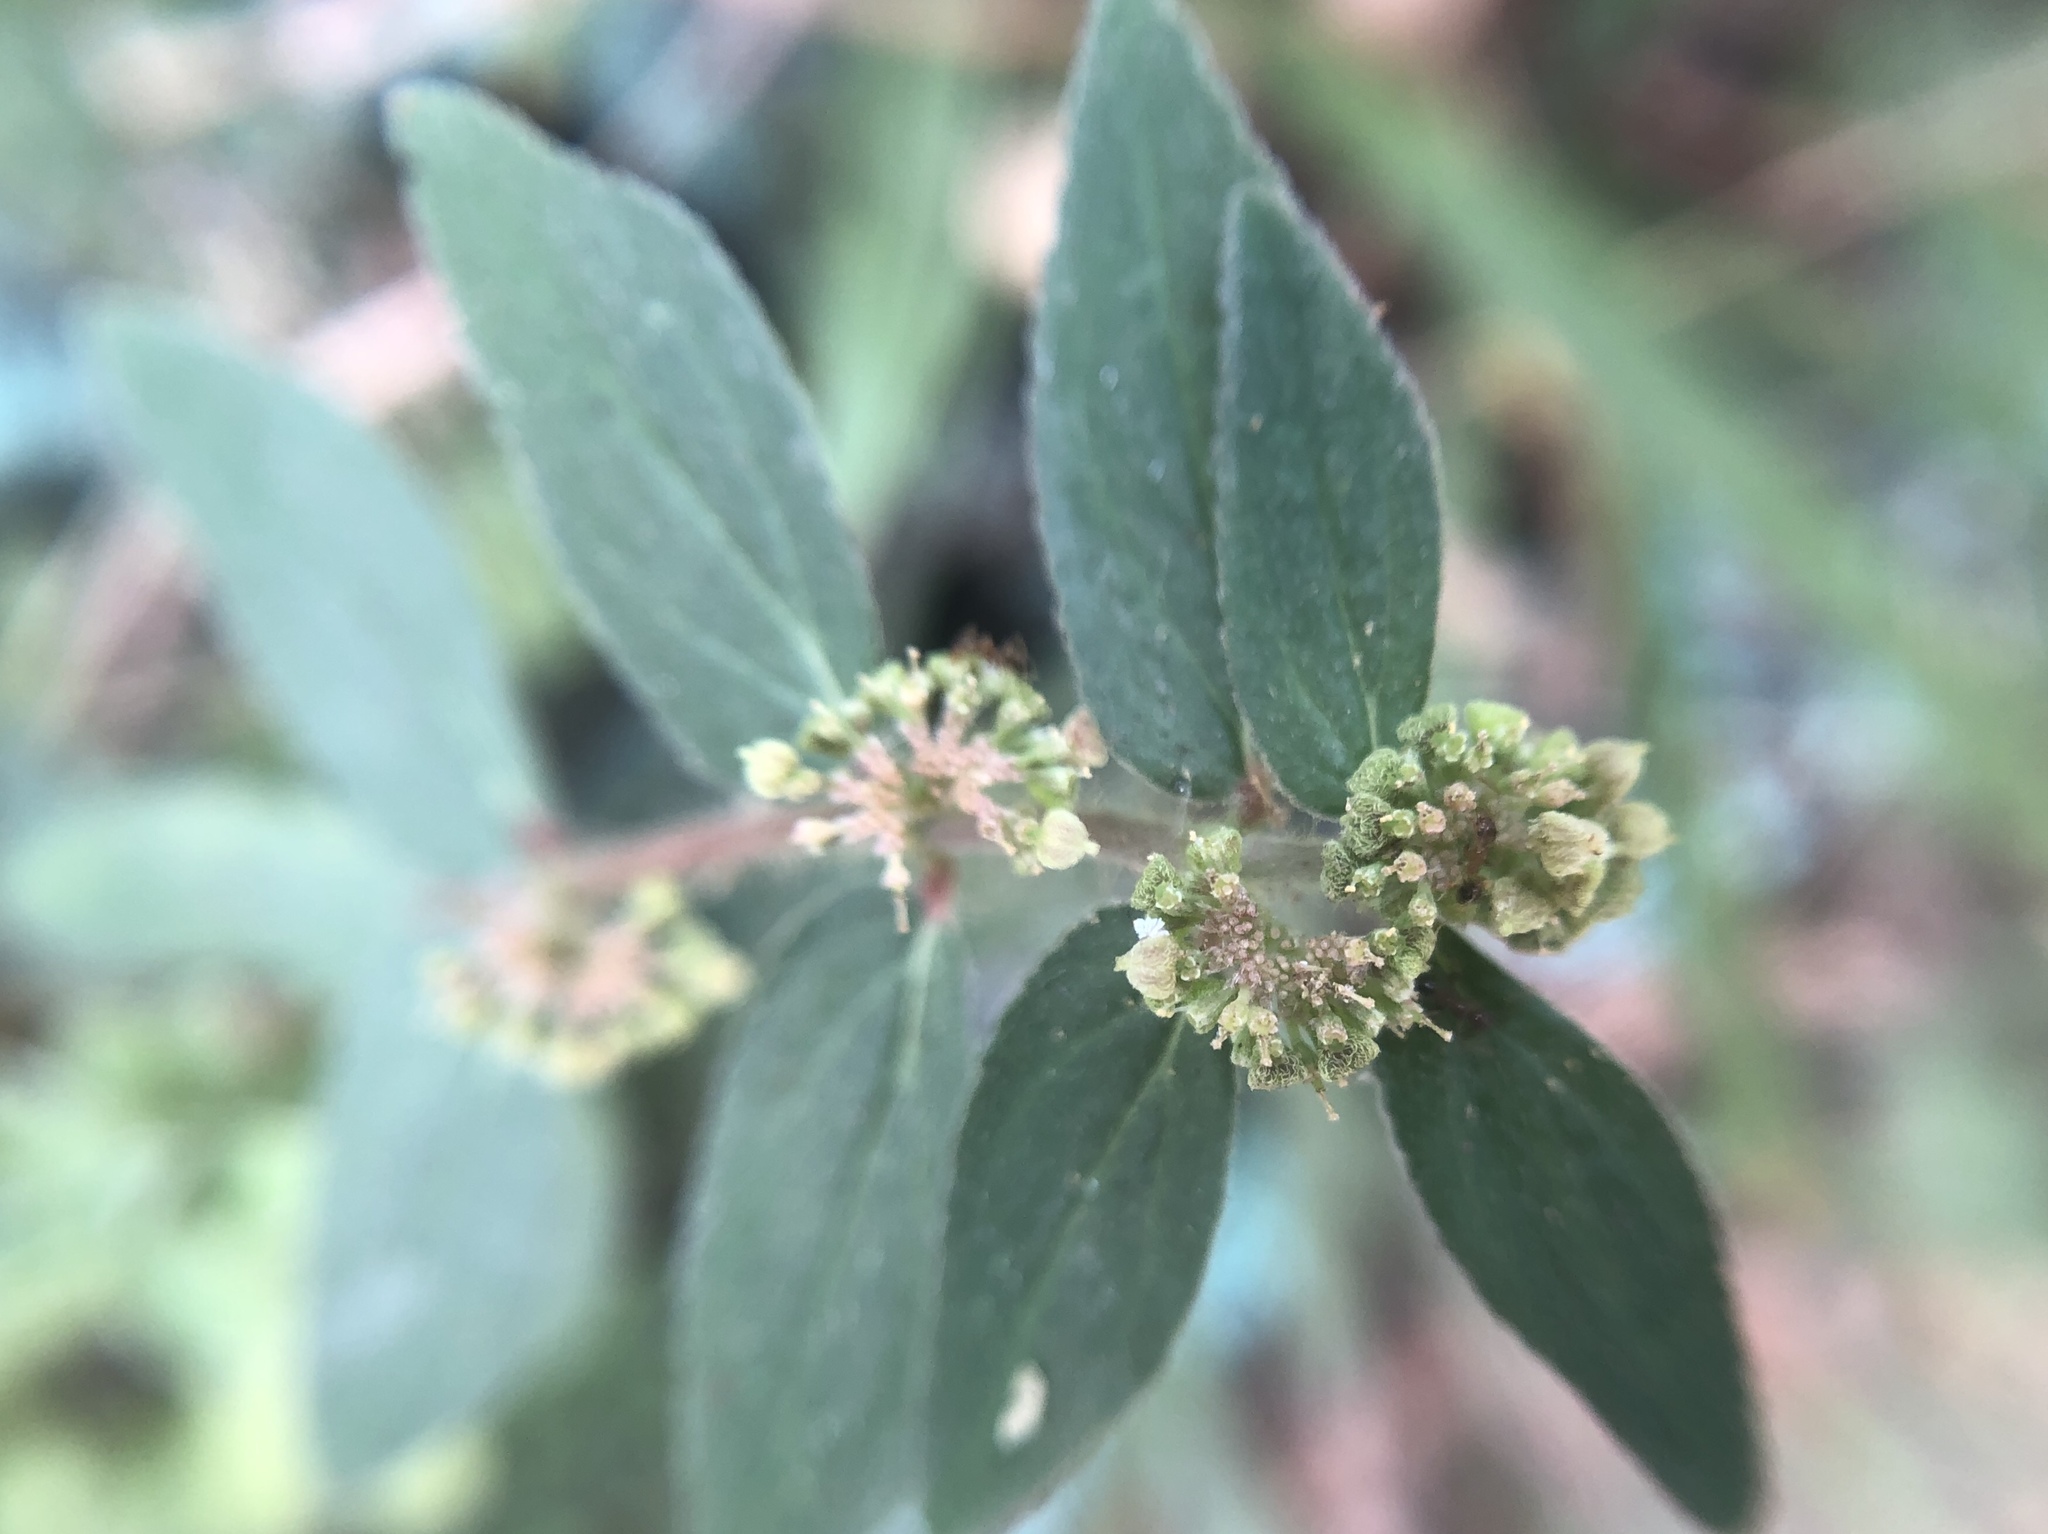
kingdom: Plantae
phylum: Tracheophyta
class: Magnoliopsida
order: Malpighiales
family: Euphorbiaceae
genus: Euphorbia
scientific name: Euphorbia hirta
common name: Pillpod sandmat
